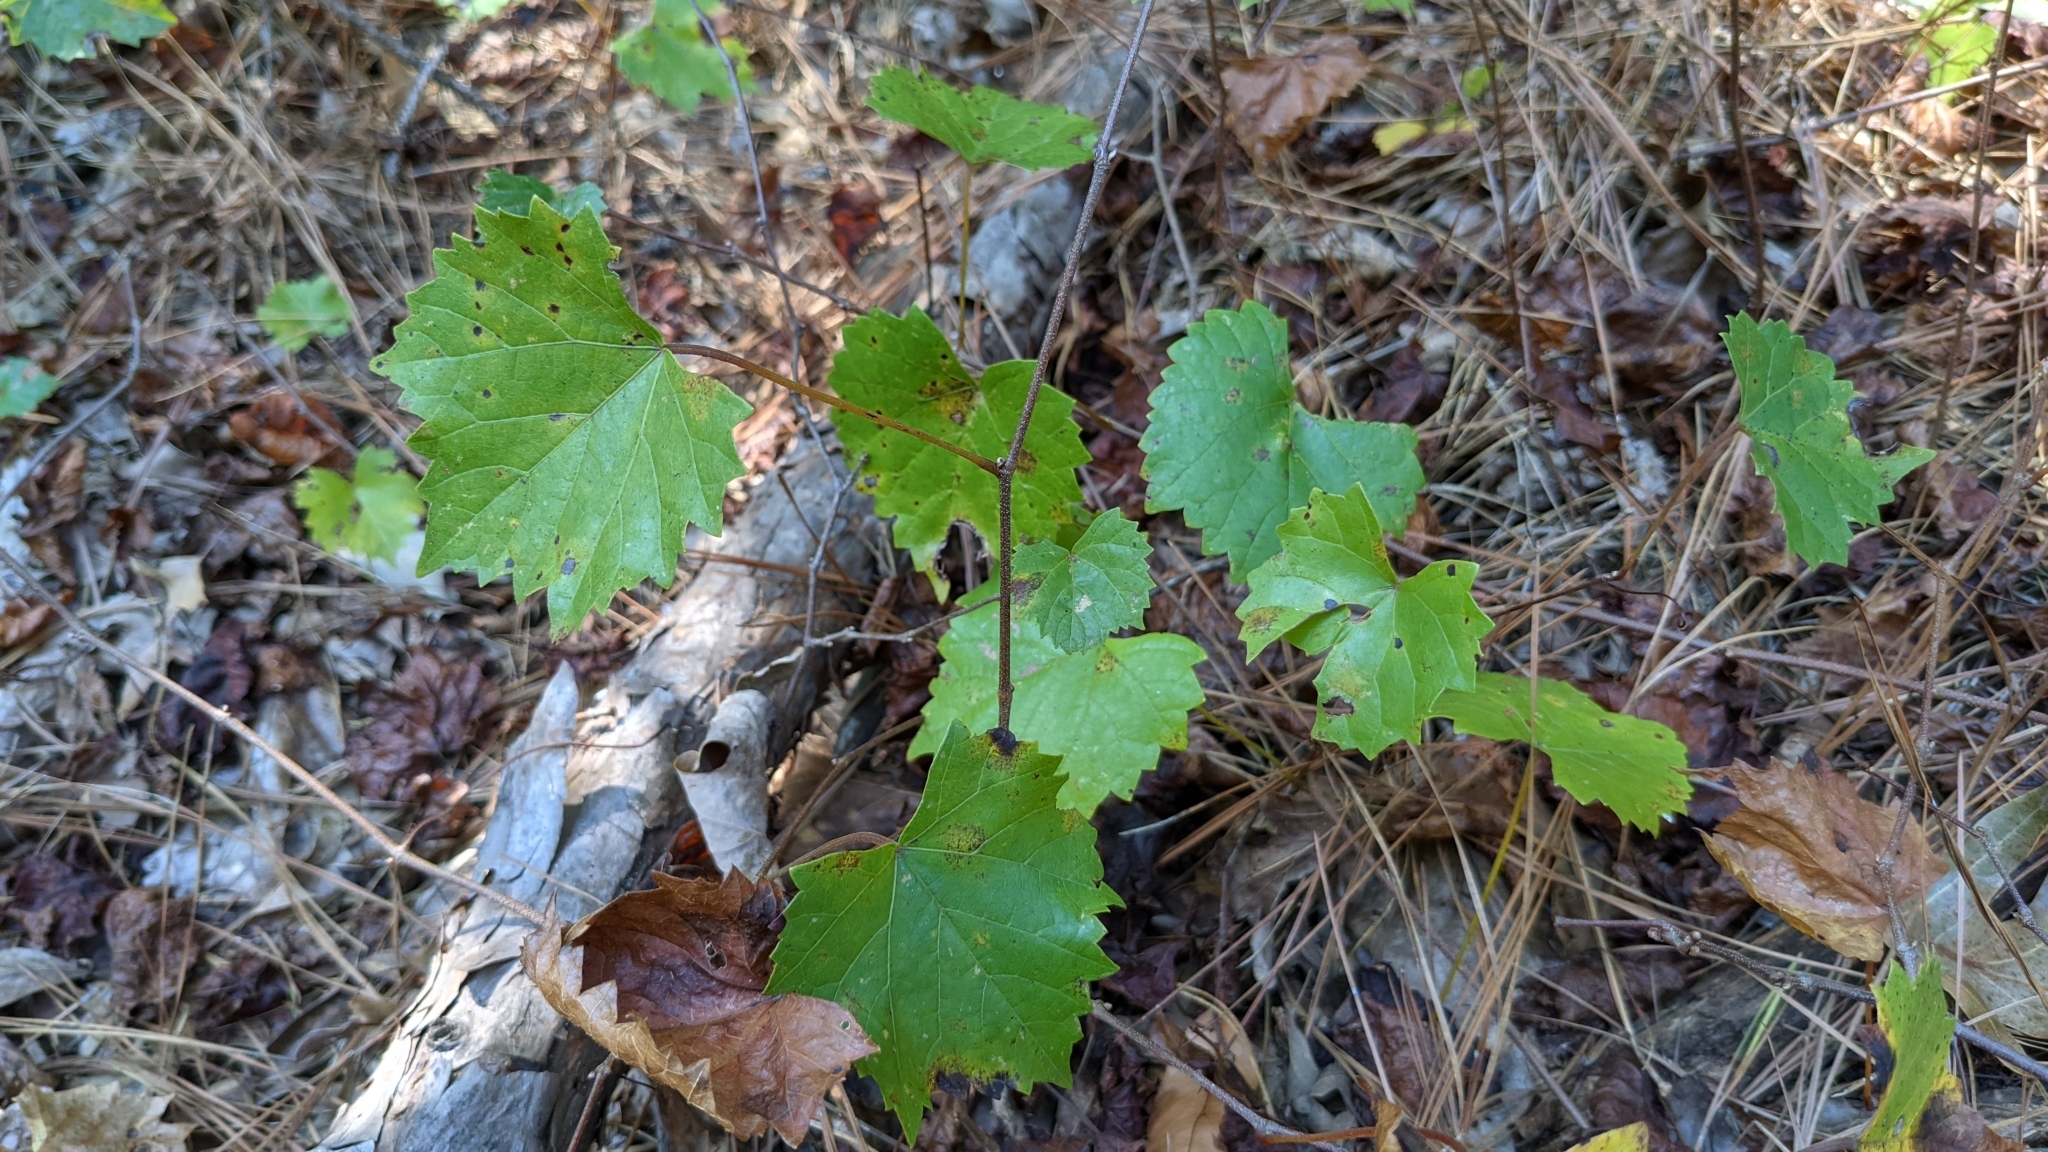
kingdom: Plantae
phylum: Tracheophyta
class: Magnoliopsida
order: Vitales
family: Vitaceae
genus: Vitis
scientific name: Vitis rotundifolia
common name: Muscadine grape
